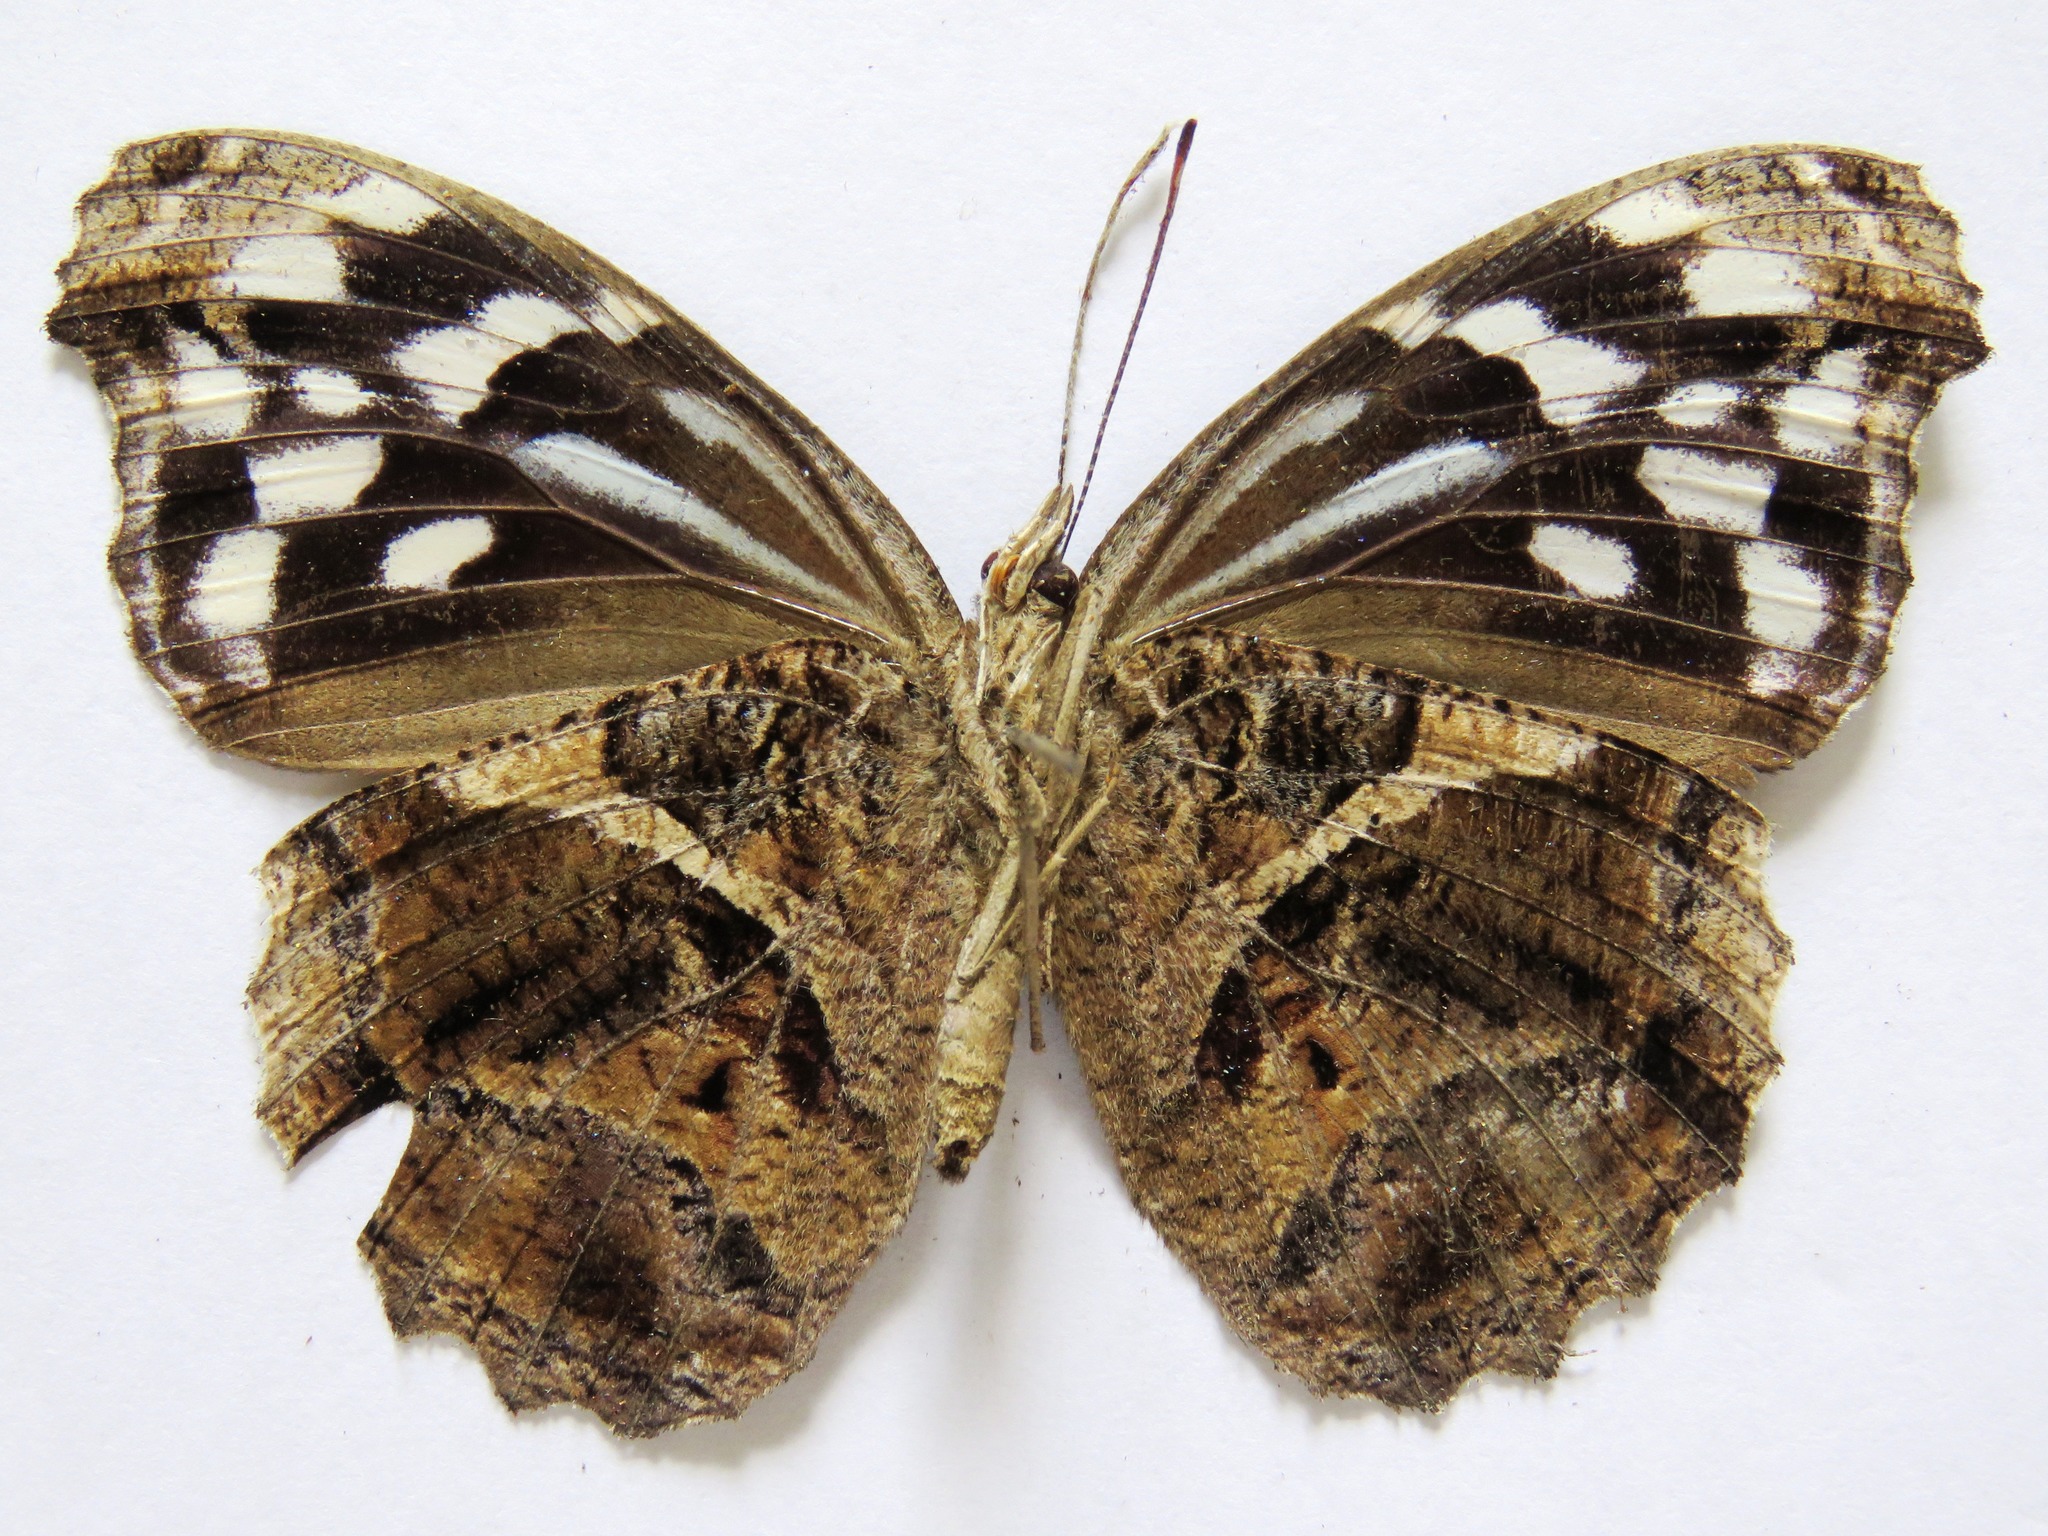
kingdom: Animalia
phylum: Arthropoda
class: Insecta
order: Lepidoptera
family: Nymphalidae
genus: Myscelia
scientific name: Myscelia ethusa
